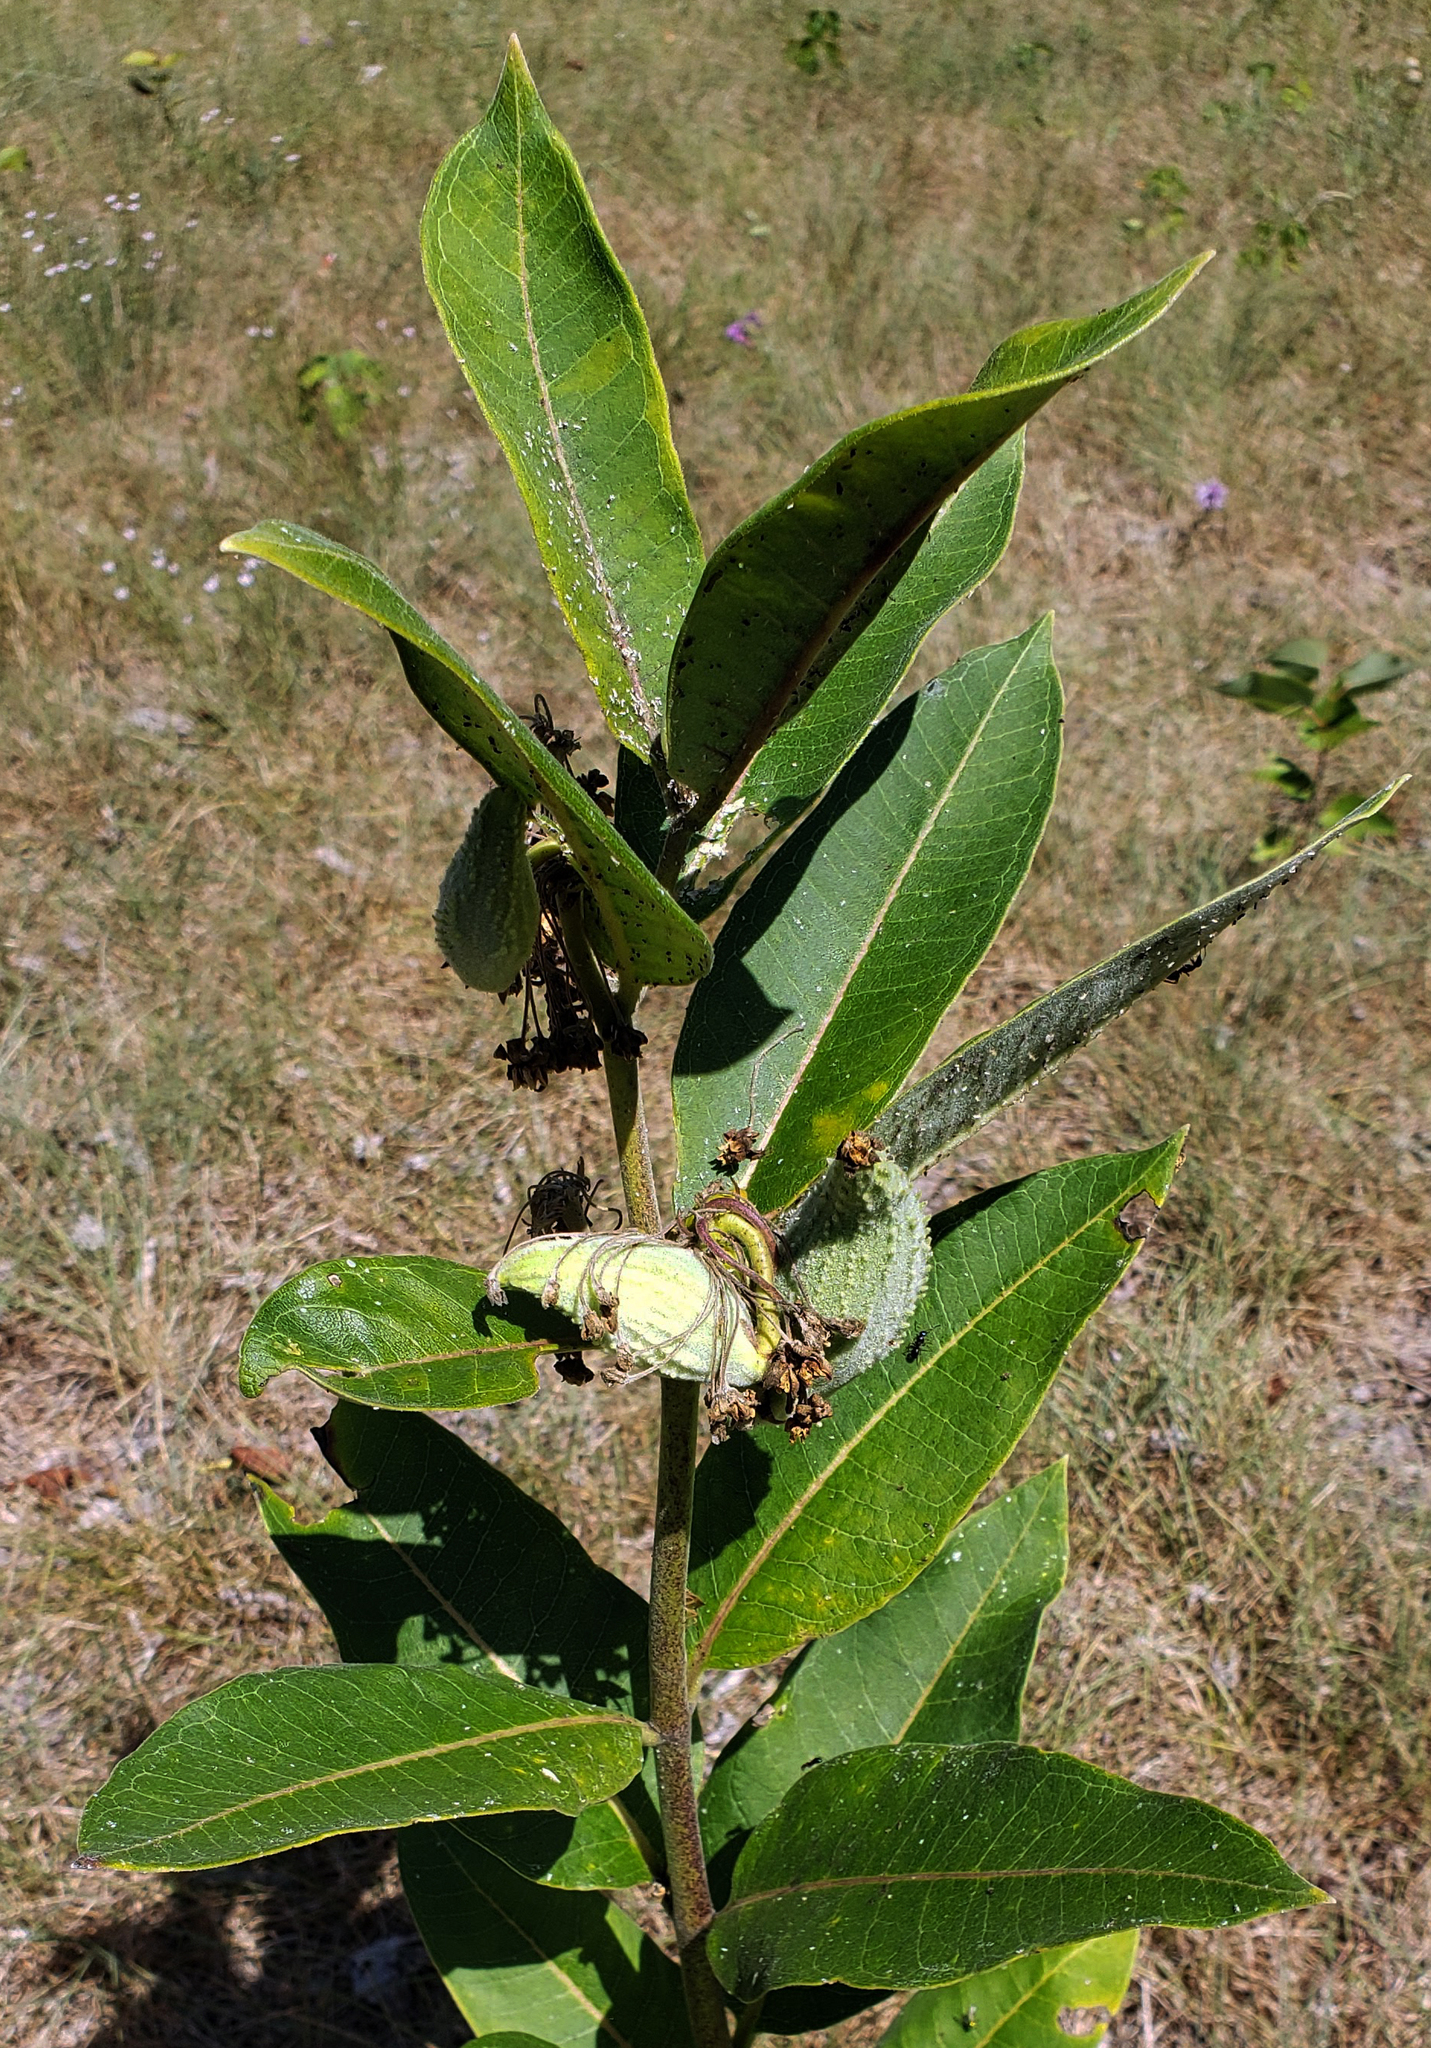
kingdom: Plantae
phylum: Tracheophyta
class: Magnoliopsida
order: Gentianales
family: Apocynaceae
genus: Asclepias
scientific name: Asclepias syriaca
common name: Common milkweed
